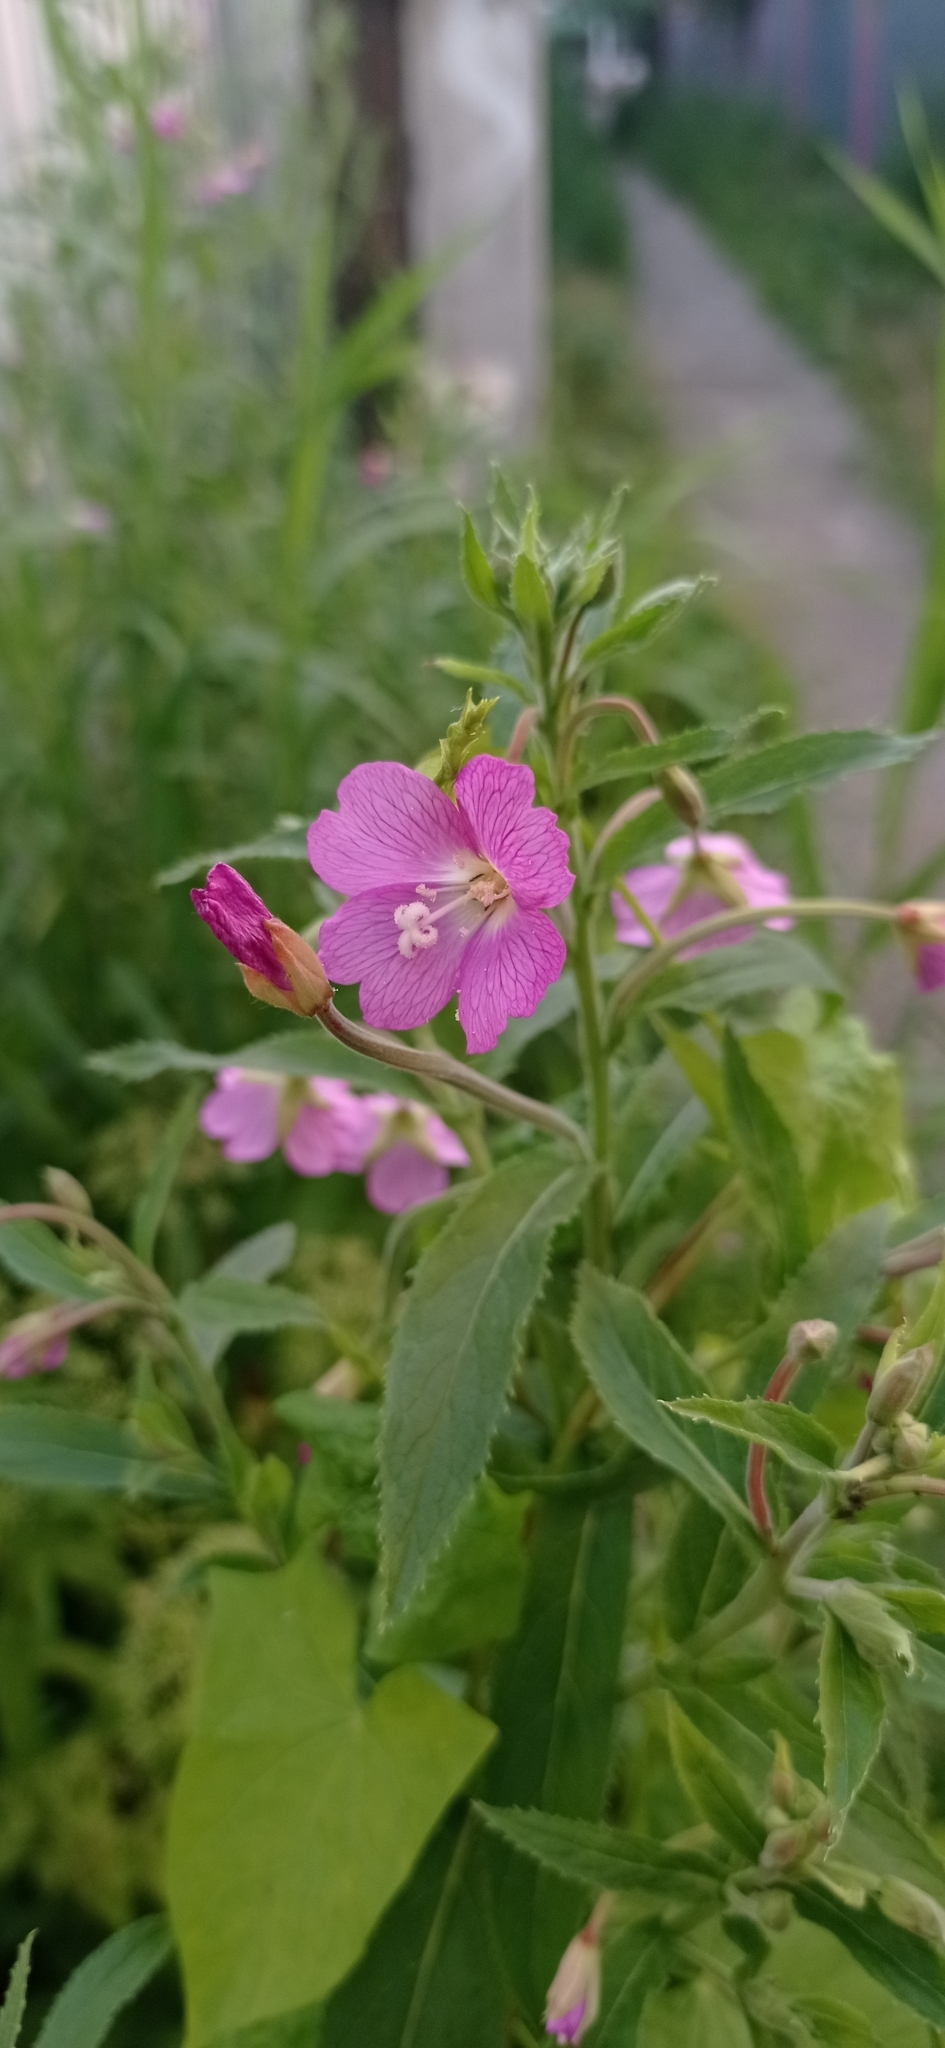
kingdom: Plantae
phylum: Tracheophyta
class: Magnoliopsida
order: Myrtales
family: Onagraceae
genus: Epilobium
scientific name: Epilobium hirsutum
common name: Great willowherb
